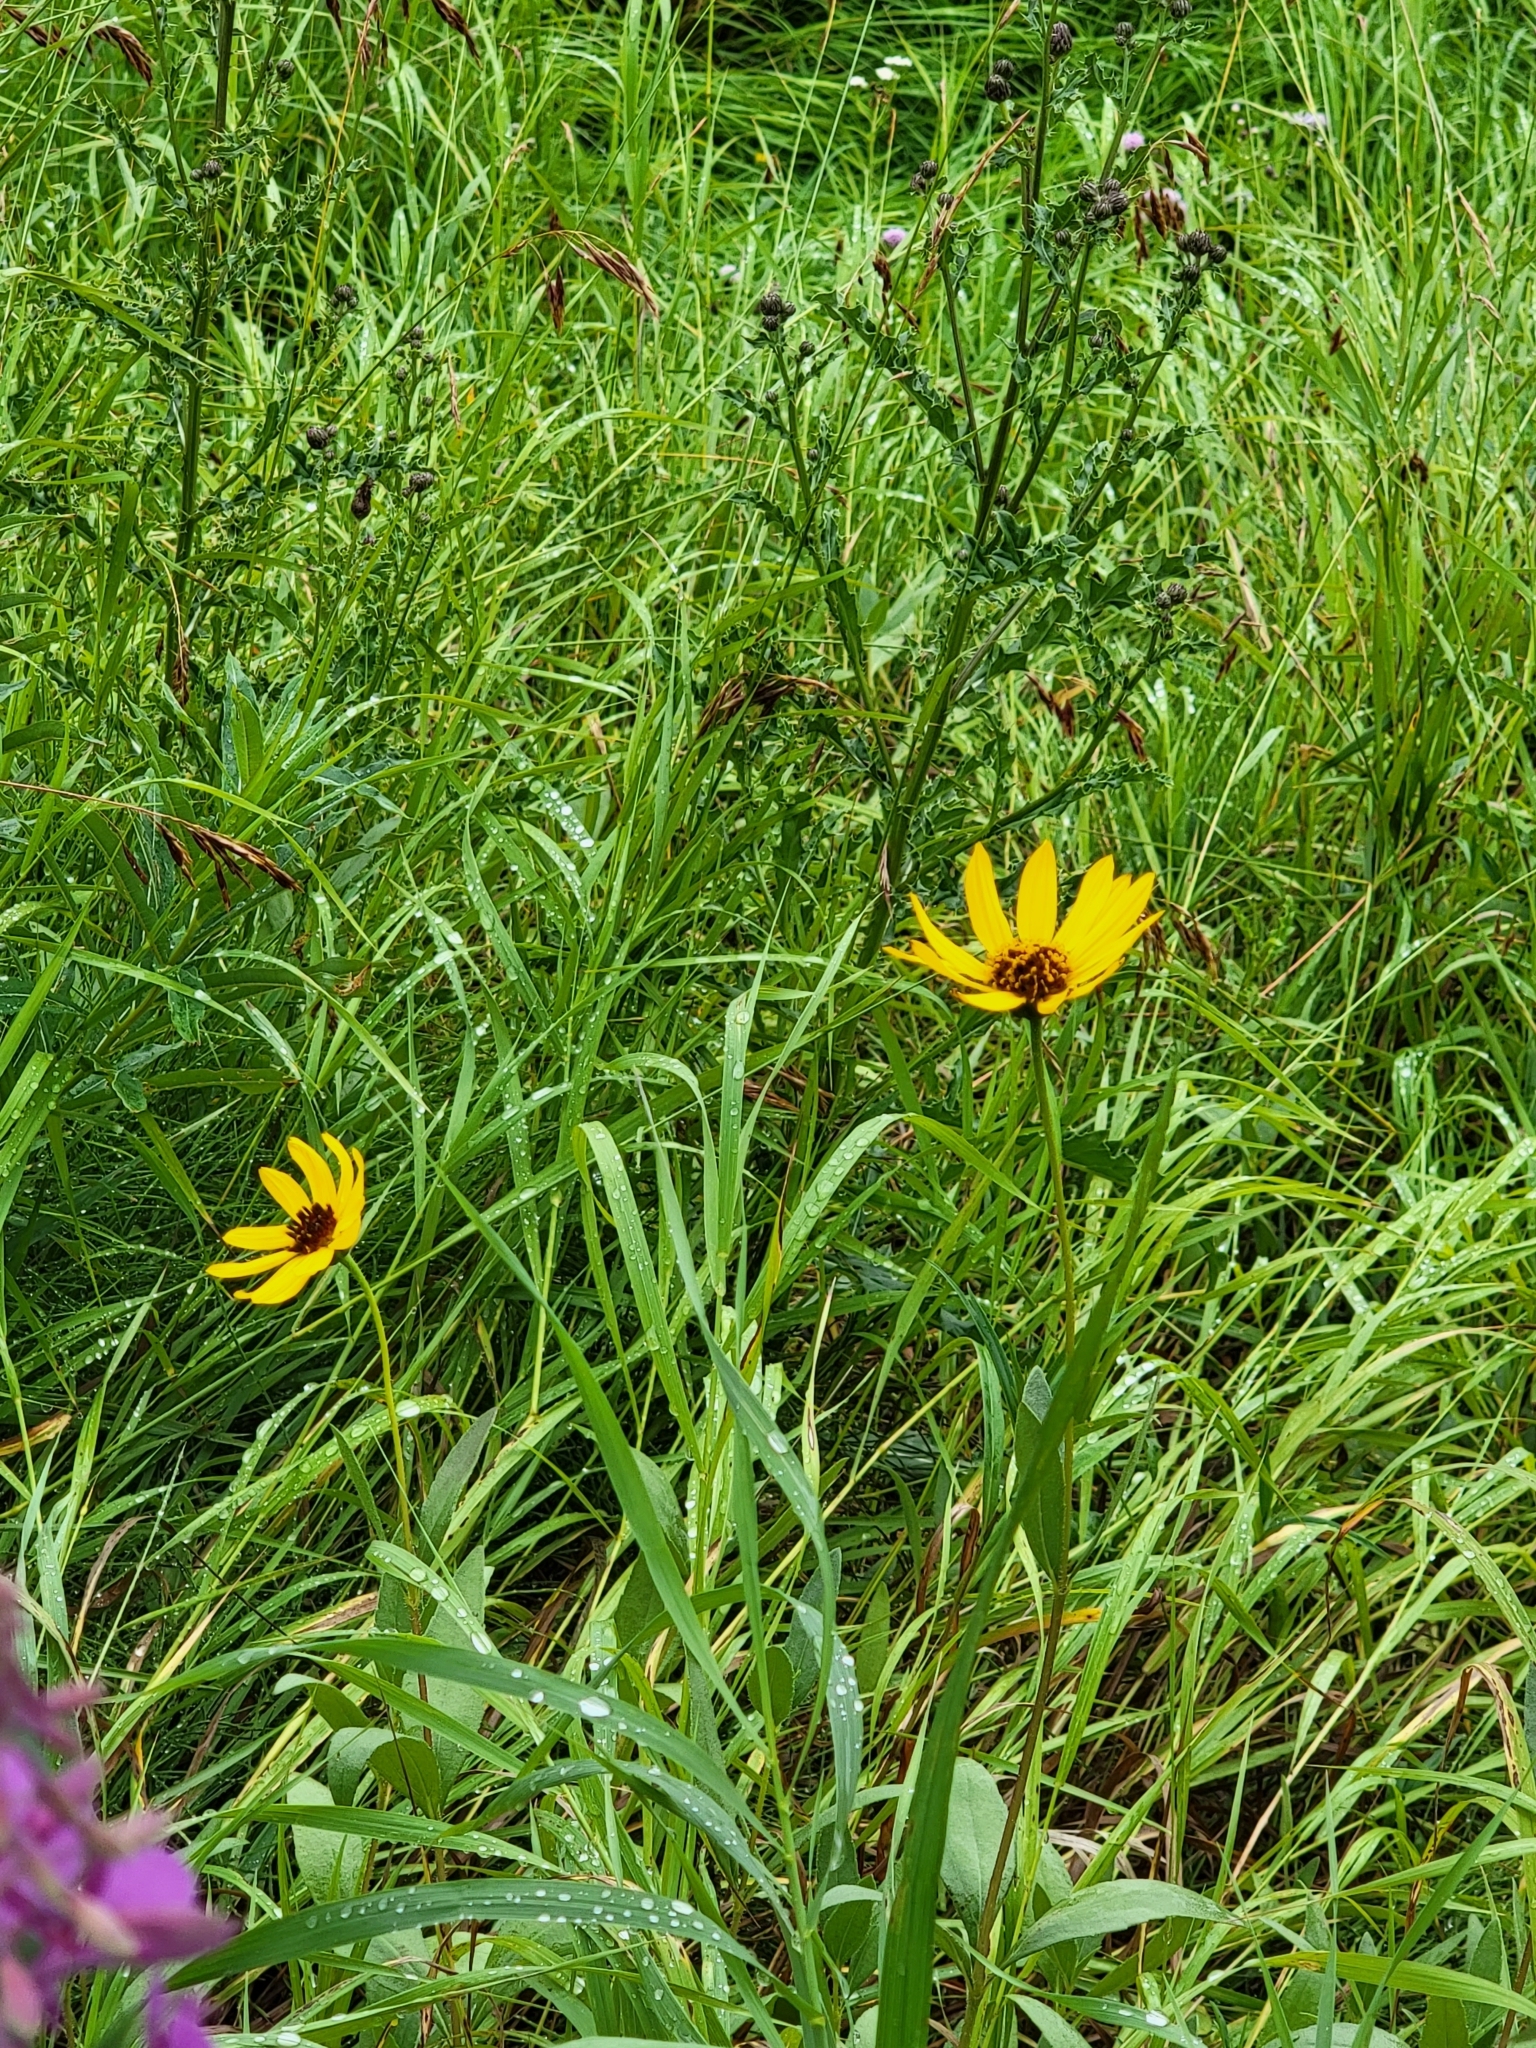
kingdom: Plantae
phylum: Tracheophyta
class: Magnoliopsida
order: Asterales
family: Asteraceae
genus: Helianthus
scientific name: Helianthus pauciflorus
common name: Stiff sunflower
